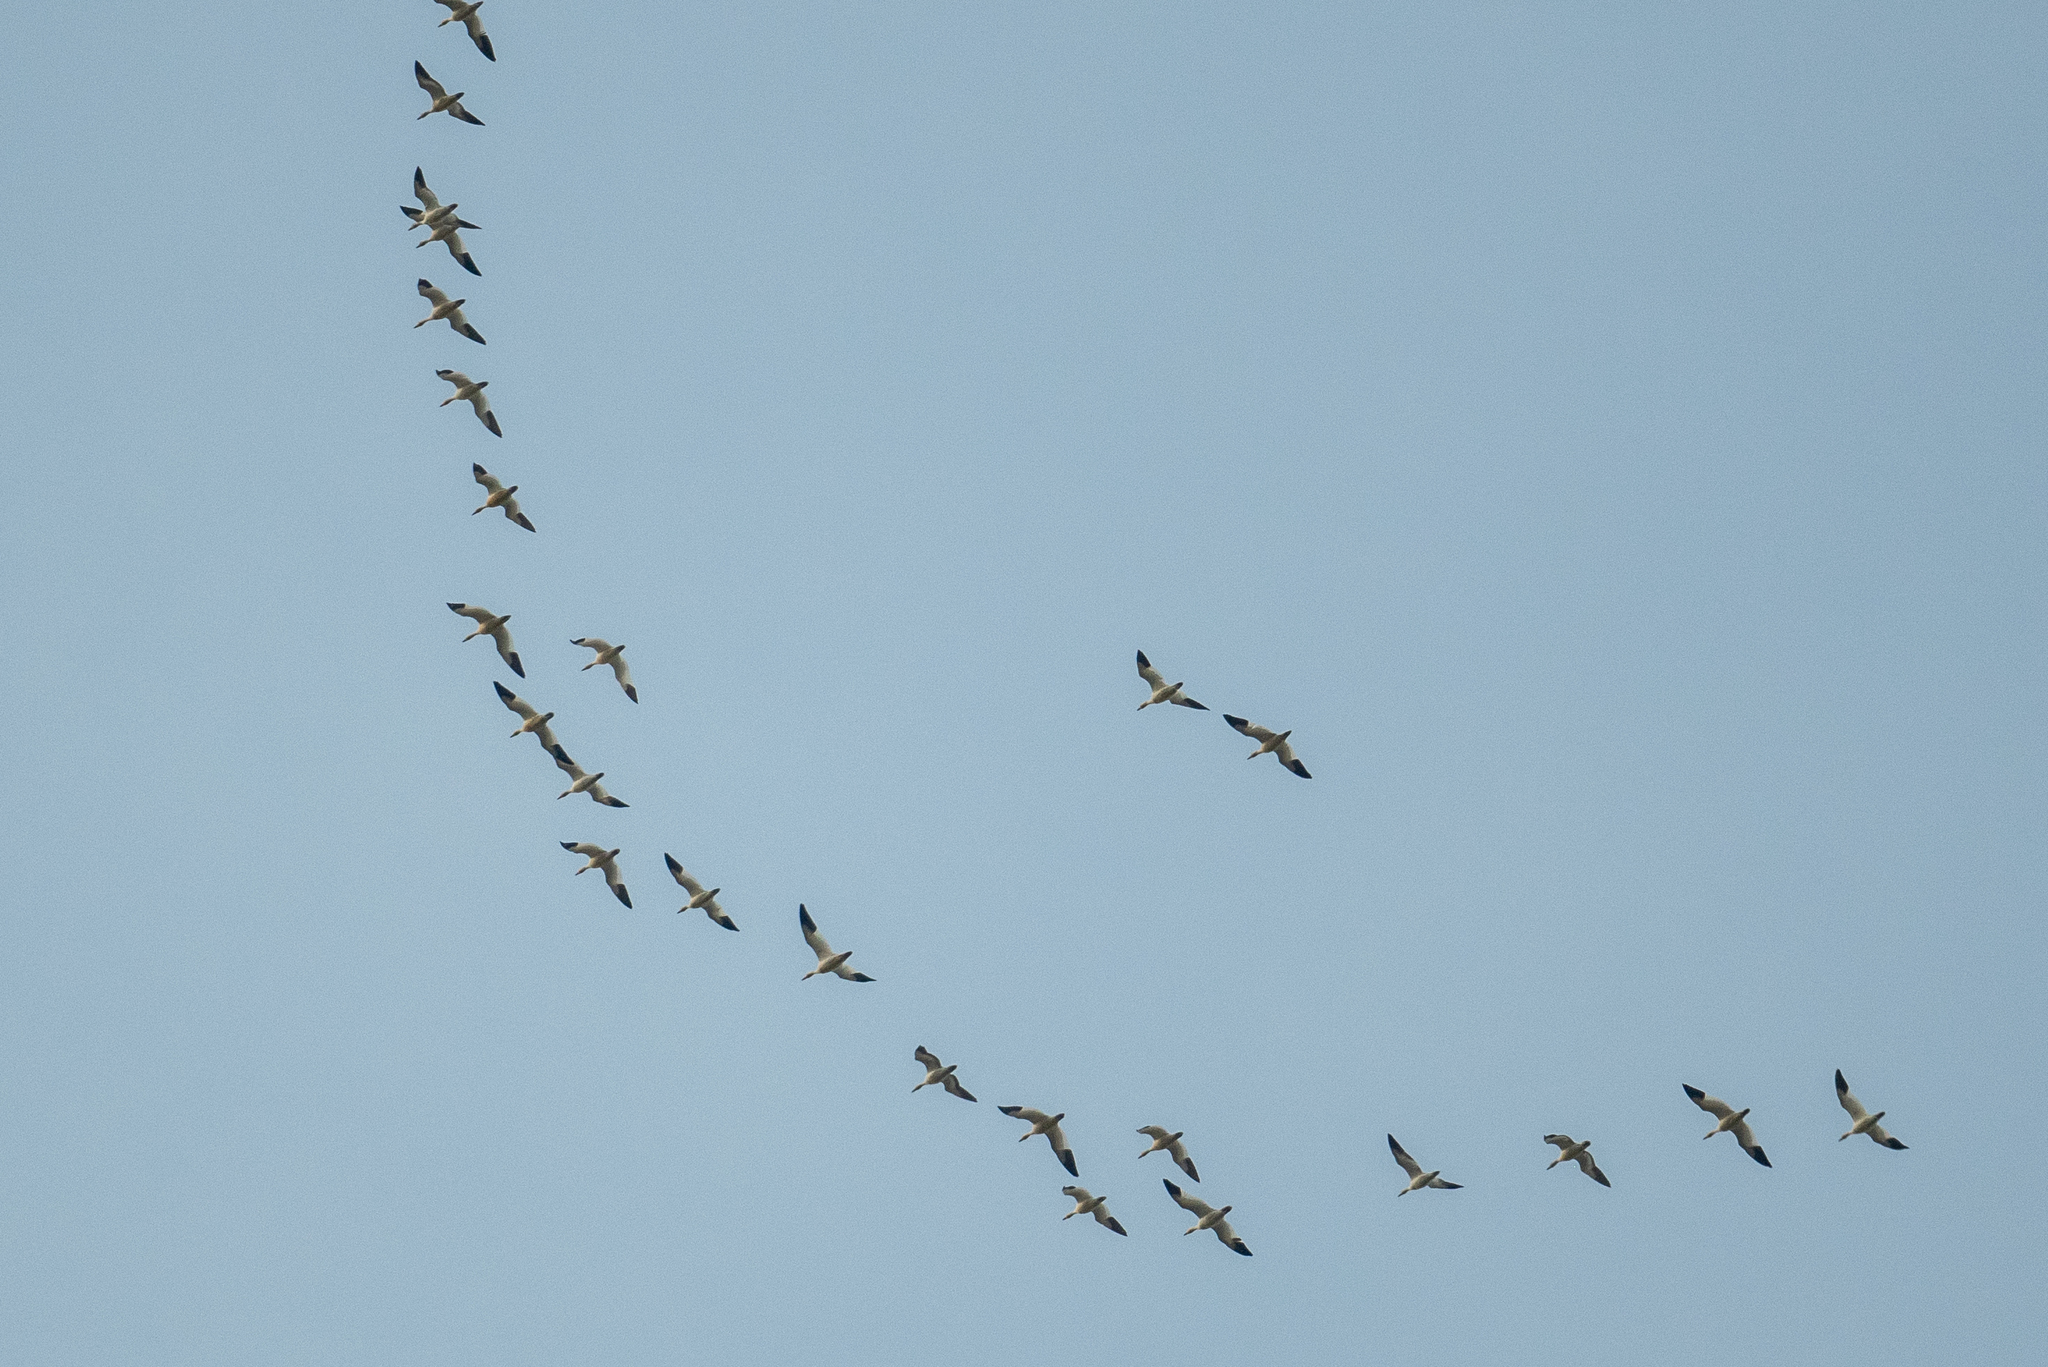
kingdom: Animalia
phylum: Chordata
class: Aves
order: Anseriformes
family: Anatidae
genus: Anser
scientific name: Anser caerulescens
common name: Snow goose
